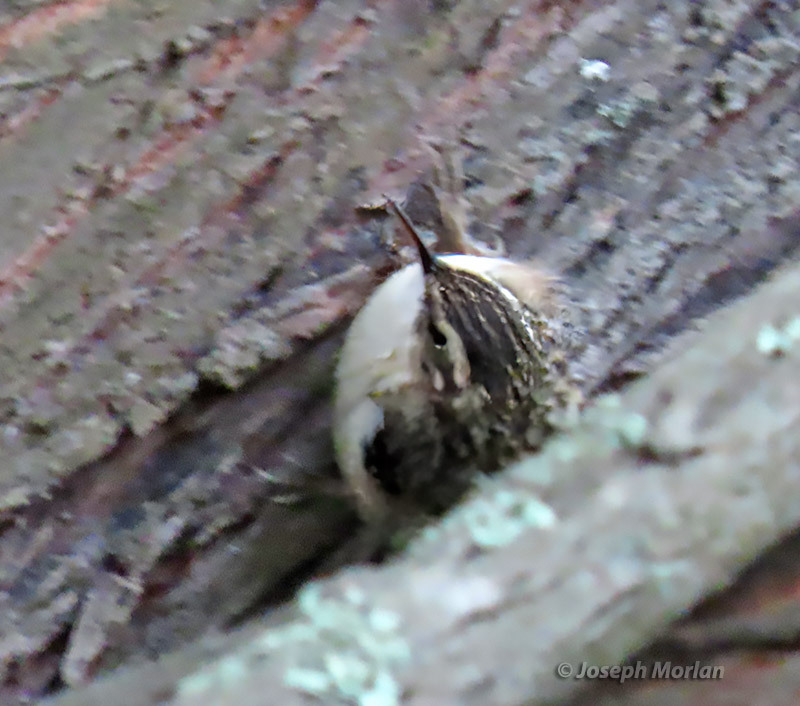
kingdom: Animalia
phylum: Chordata
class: Aves
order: Passeriformes
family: Certhiidae
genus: Certhia
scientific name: Certhia americana
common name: Brown creeper
